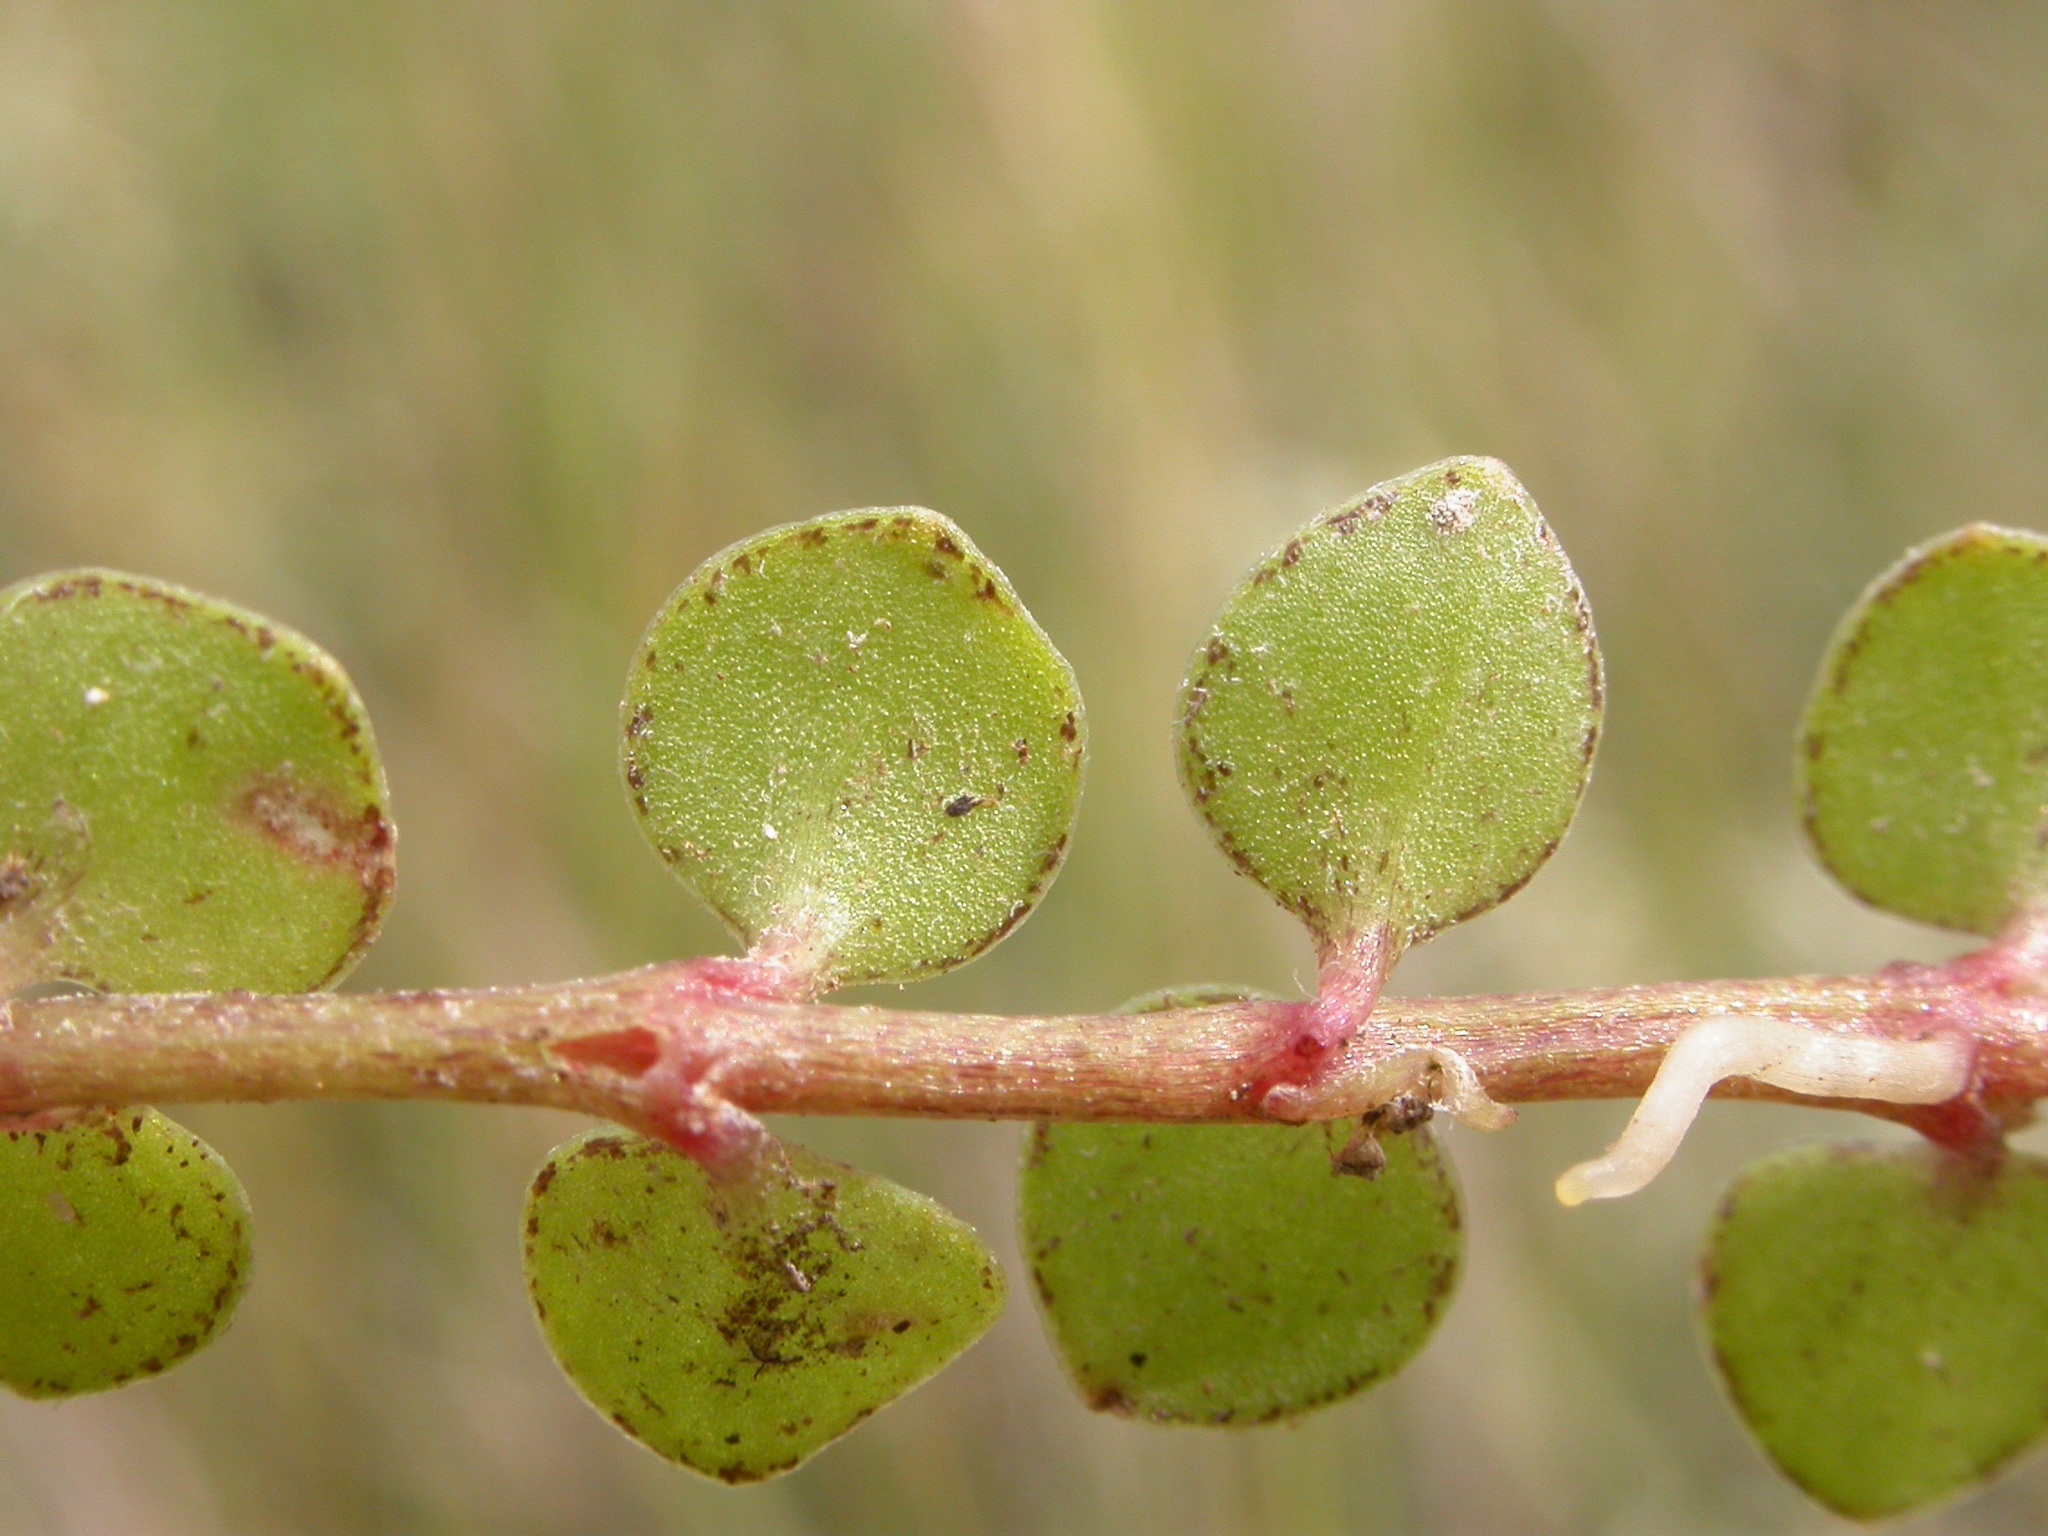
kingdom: Plantae
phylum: Tracheophyta
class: Magnoliopsida
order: Ericales
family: Primulaceae
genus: Lysimachia
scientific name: Lysimachia tenella
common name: European bog pimpernel
